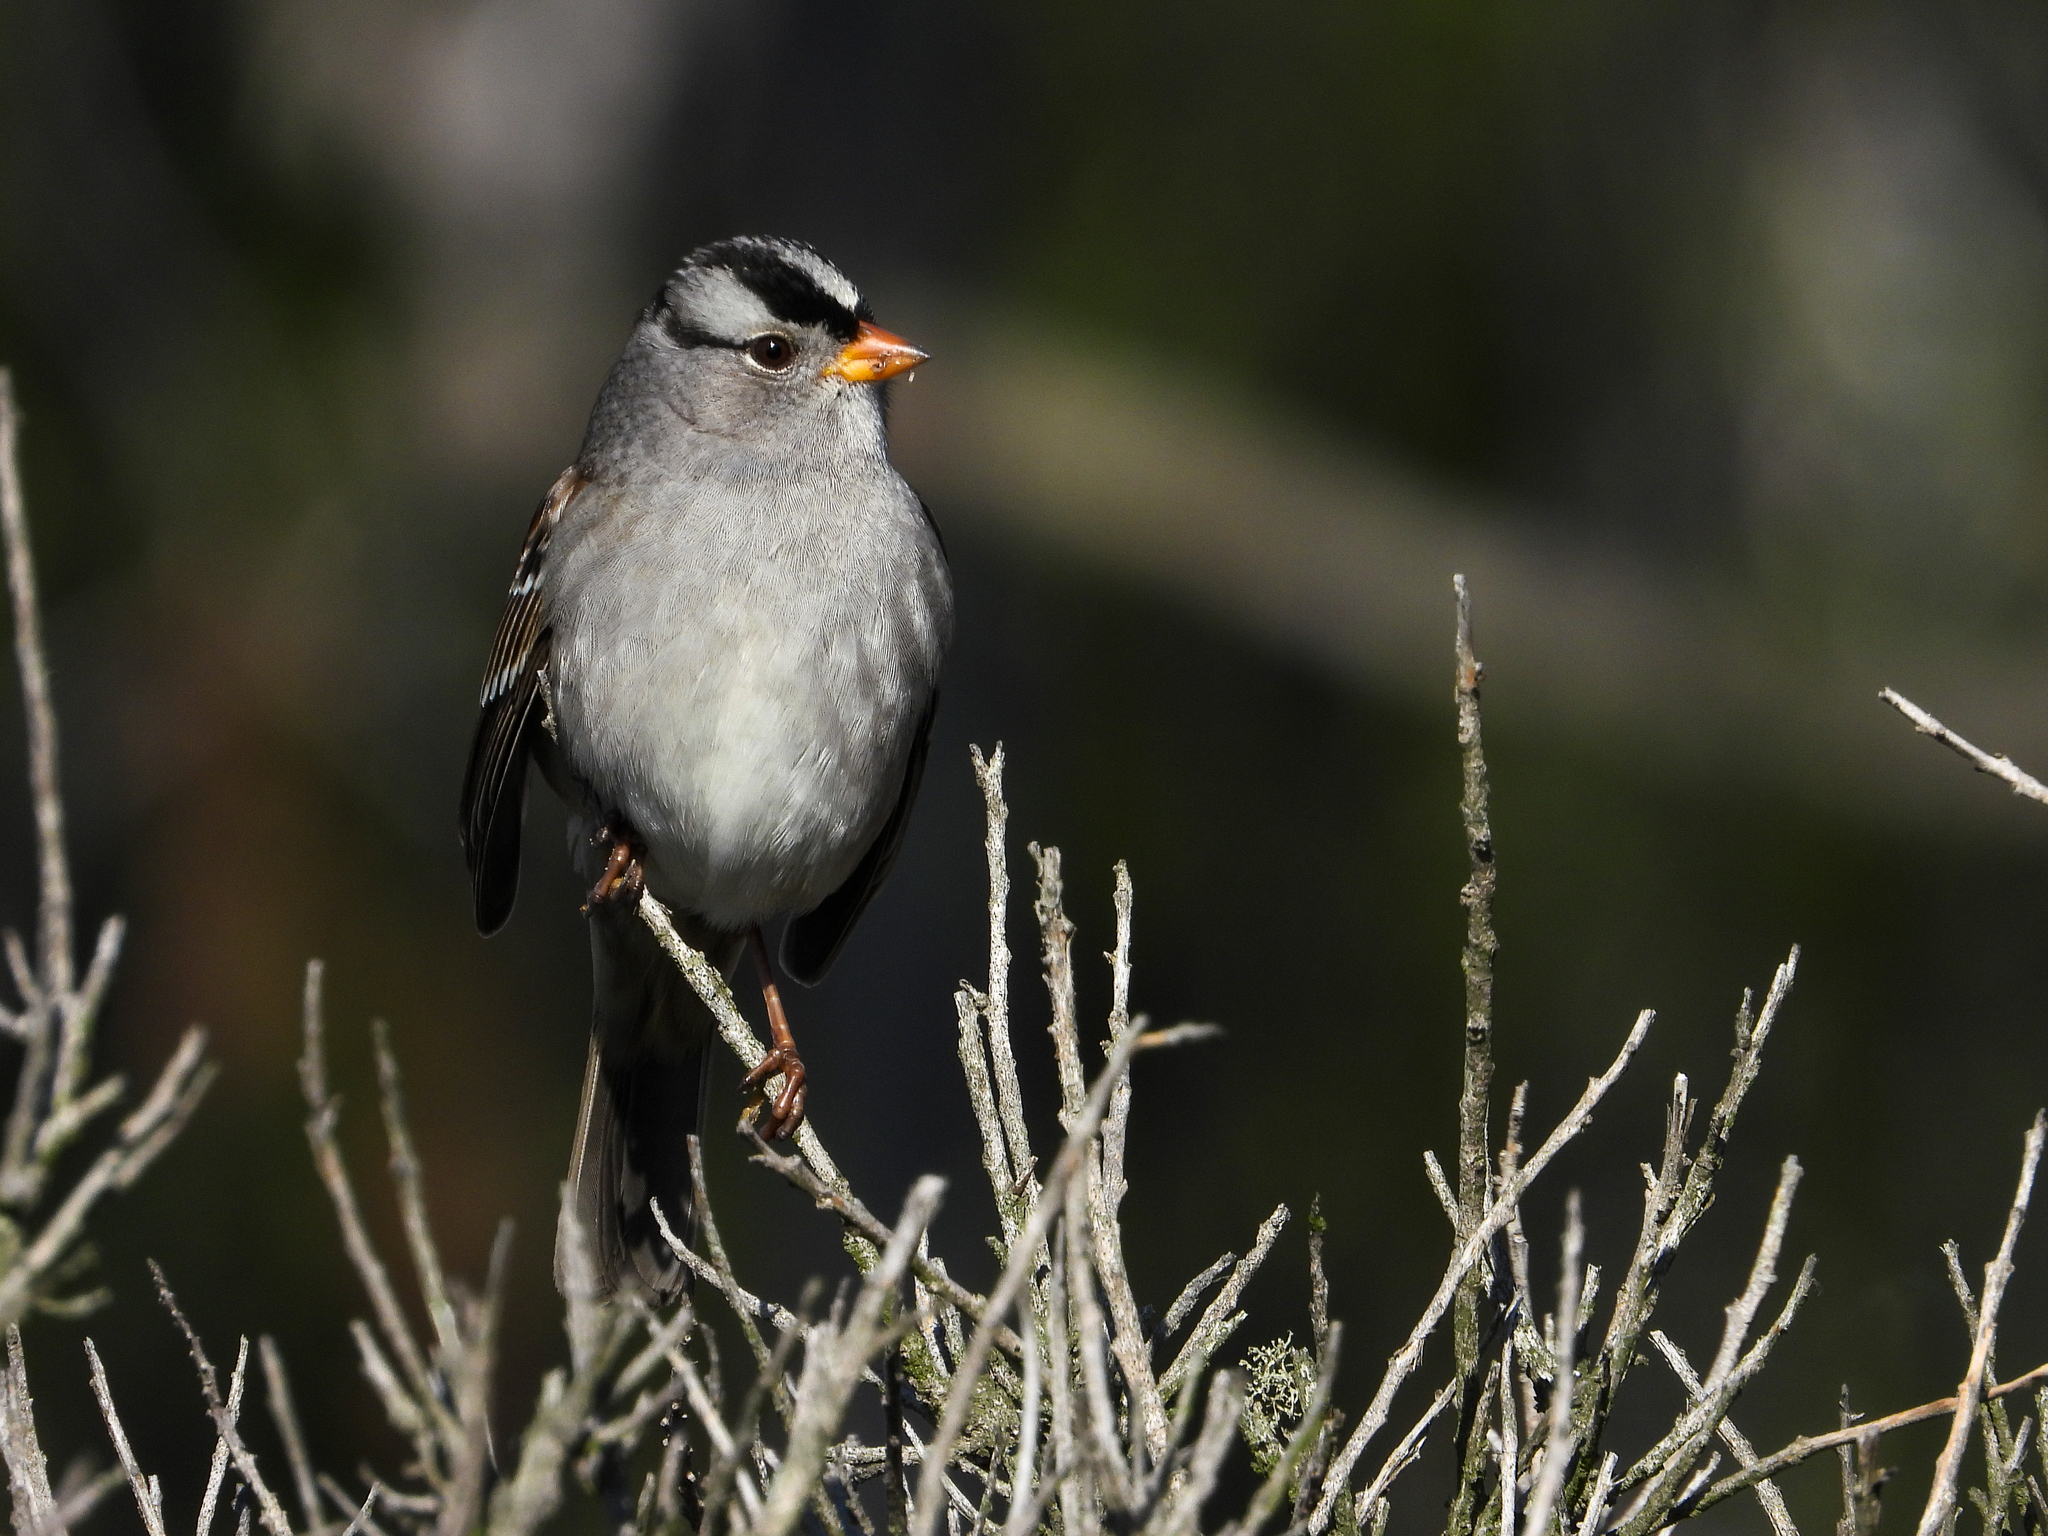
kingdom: Animalia
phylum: Chordata
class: Aves
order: Passeriformes
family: Passerellidae
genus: Zonotrichia
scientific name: Zonotrichia leucophrys
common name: White-crowned sparrow
